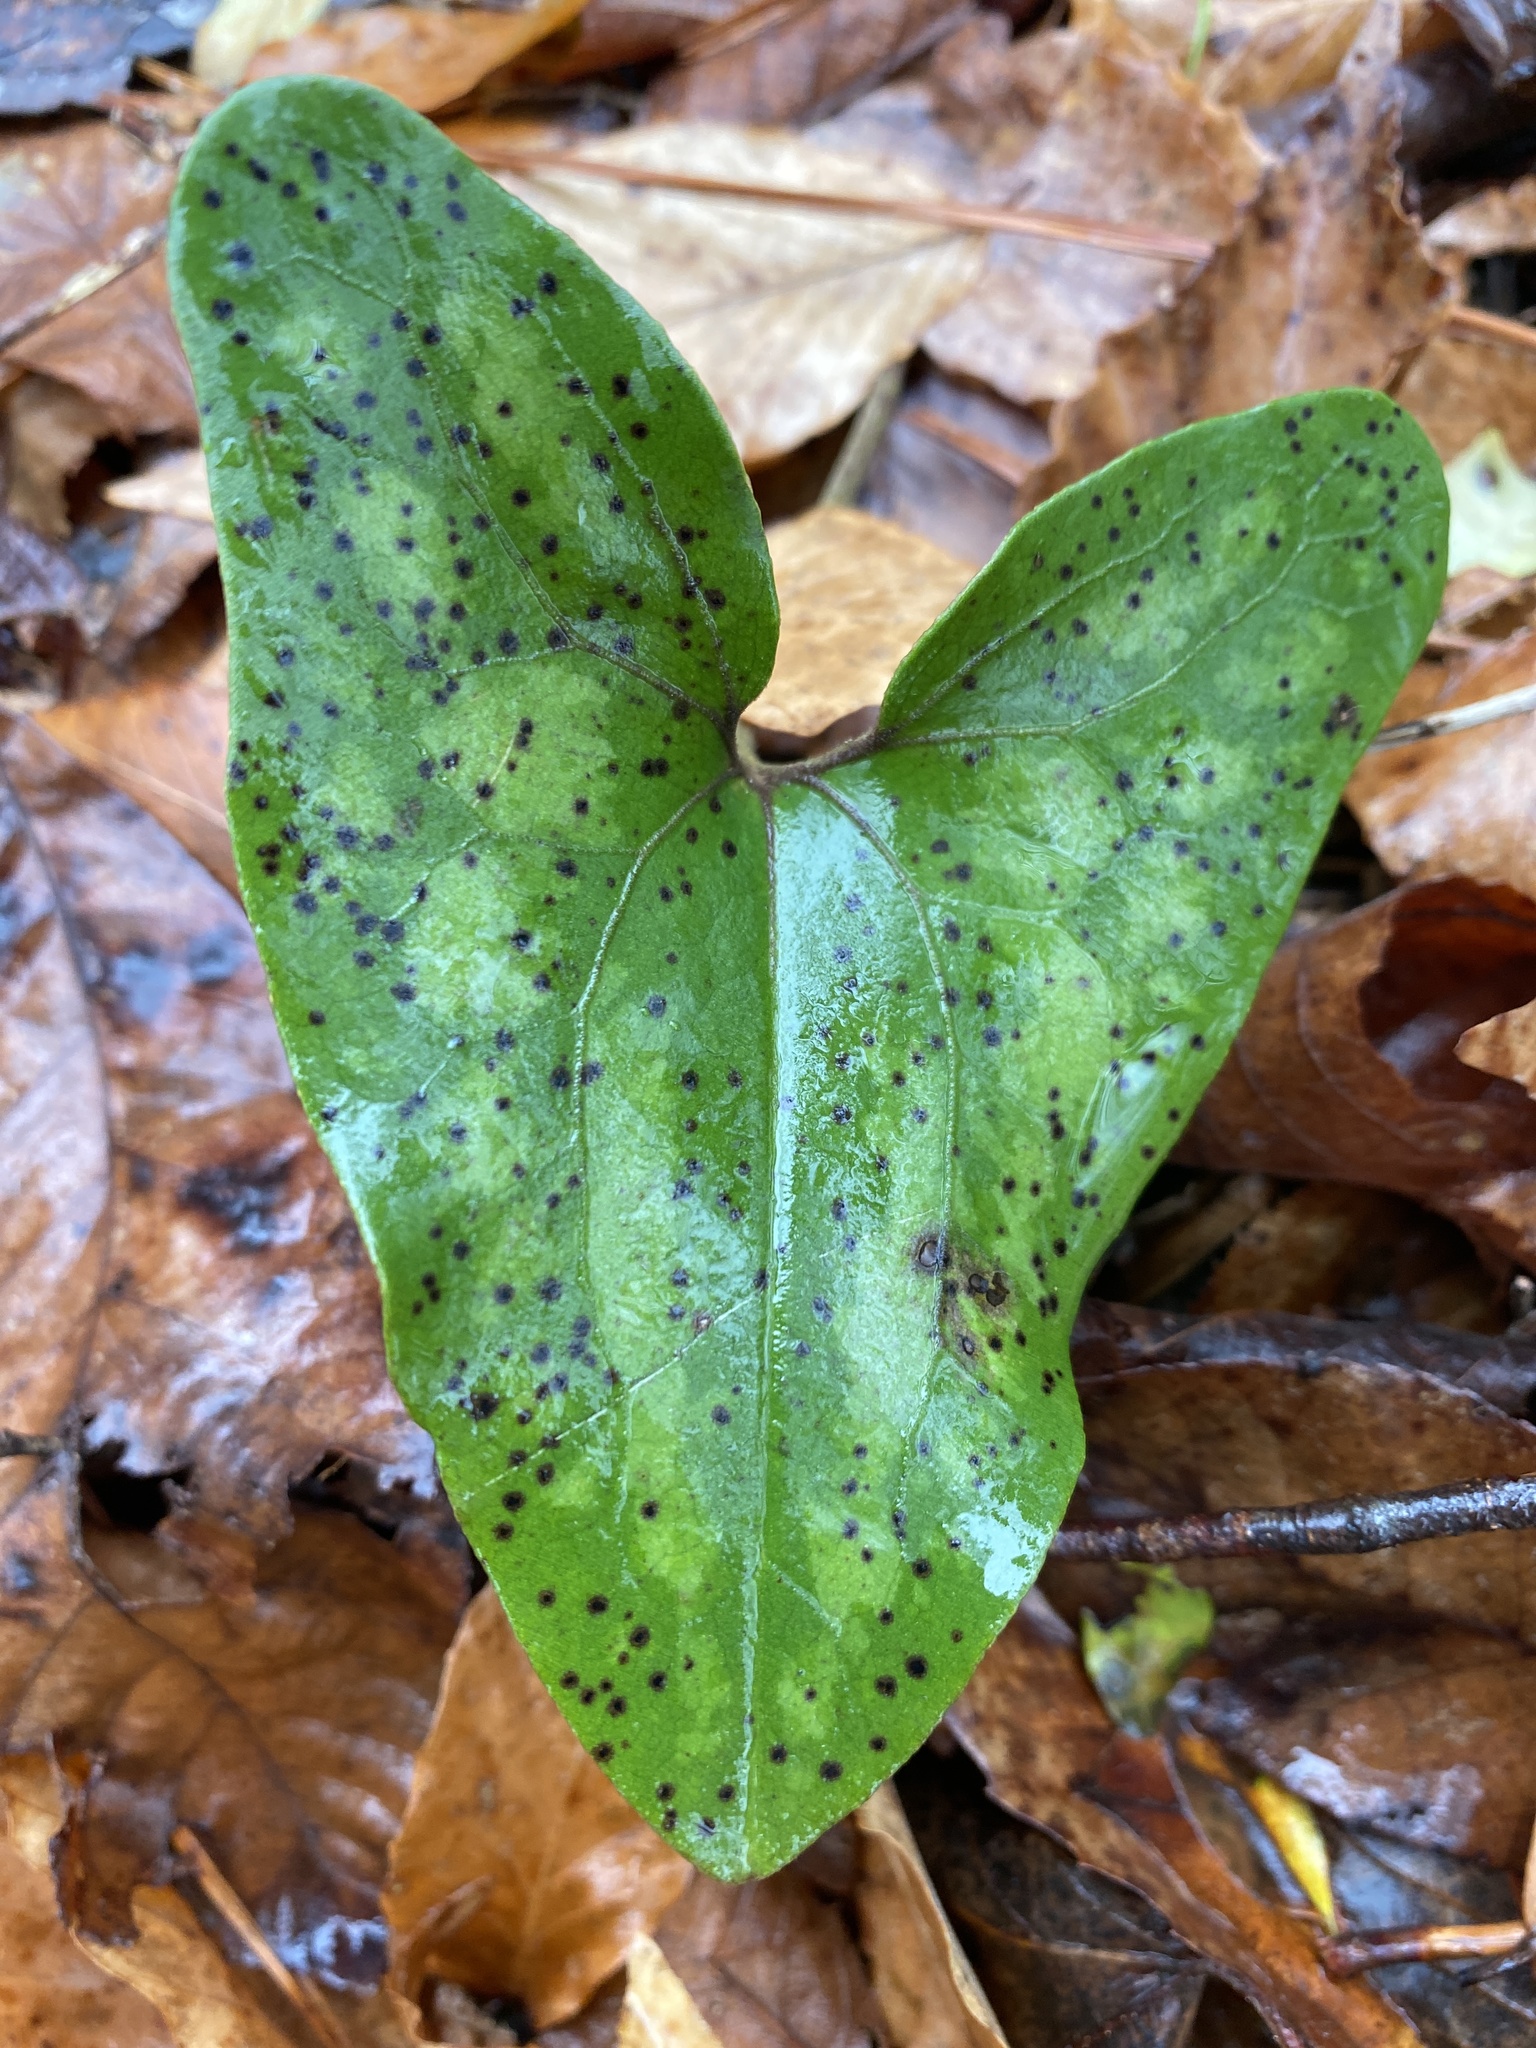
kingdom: Plantae
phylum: Tracheophyta
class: Magnoliopsida
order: Piperales
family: Aristolochiaceae
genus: Hexastylis
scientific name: Hexastylis arifolia
